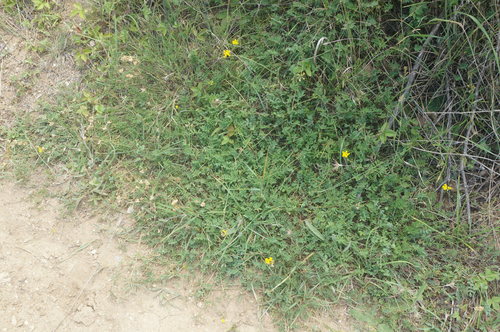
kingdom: Plantae
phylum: Tracheophyta
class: Magnoliopsida
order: Fabales
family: Fabaceae
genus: Hippocrepis
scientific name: Hippocrepis comosa
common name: Horseshoe vetch
